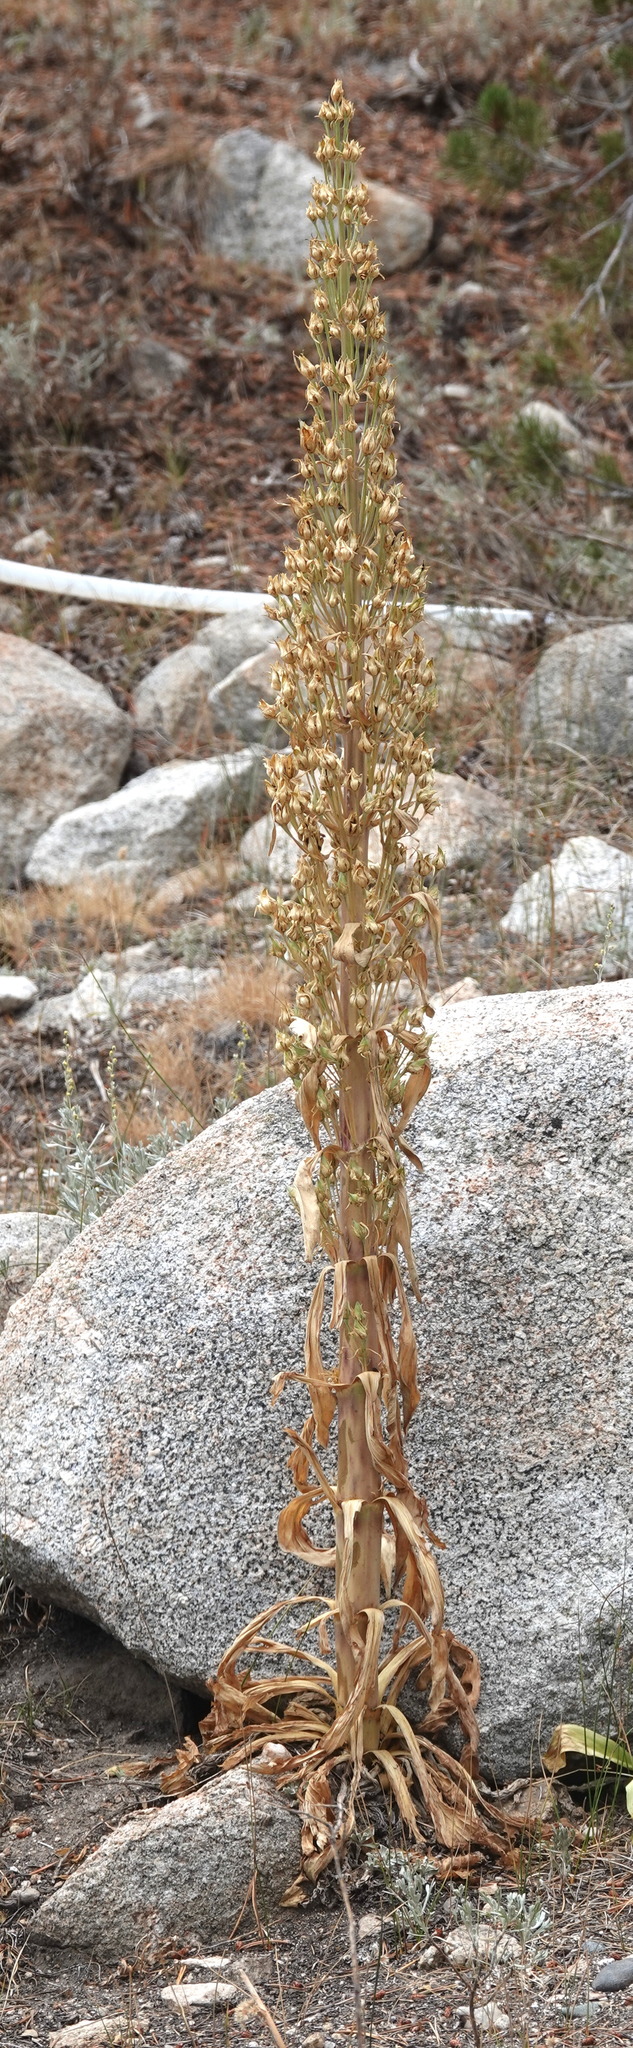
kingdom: Plantae
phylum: Tracheophyta
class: Magnoliopsida
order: Gentianales
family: Gentianaceae
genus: Frasera
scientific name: Frasera speciosa
